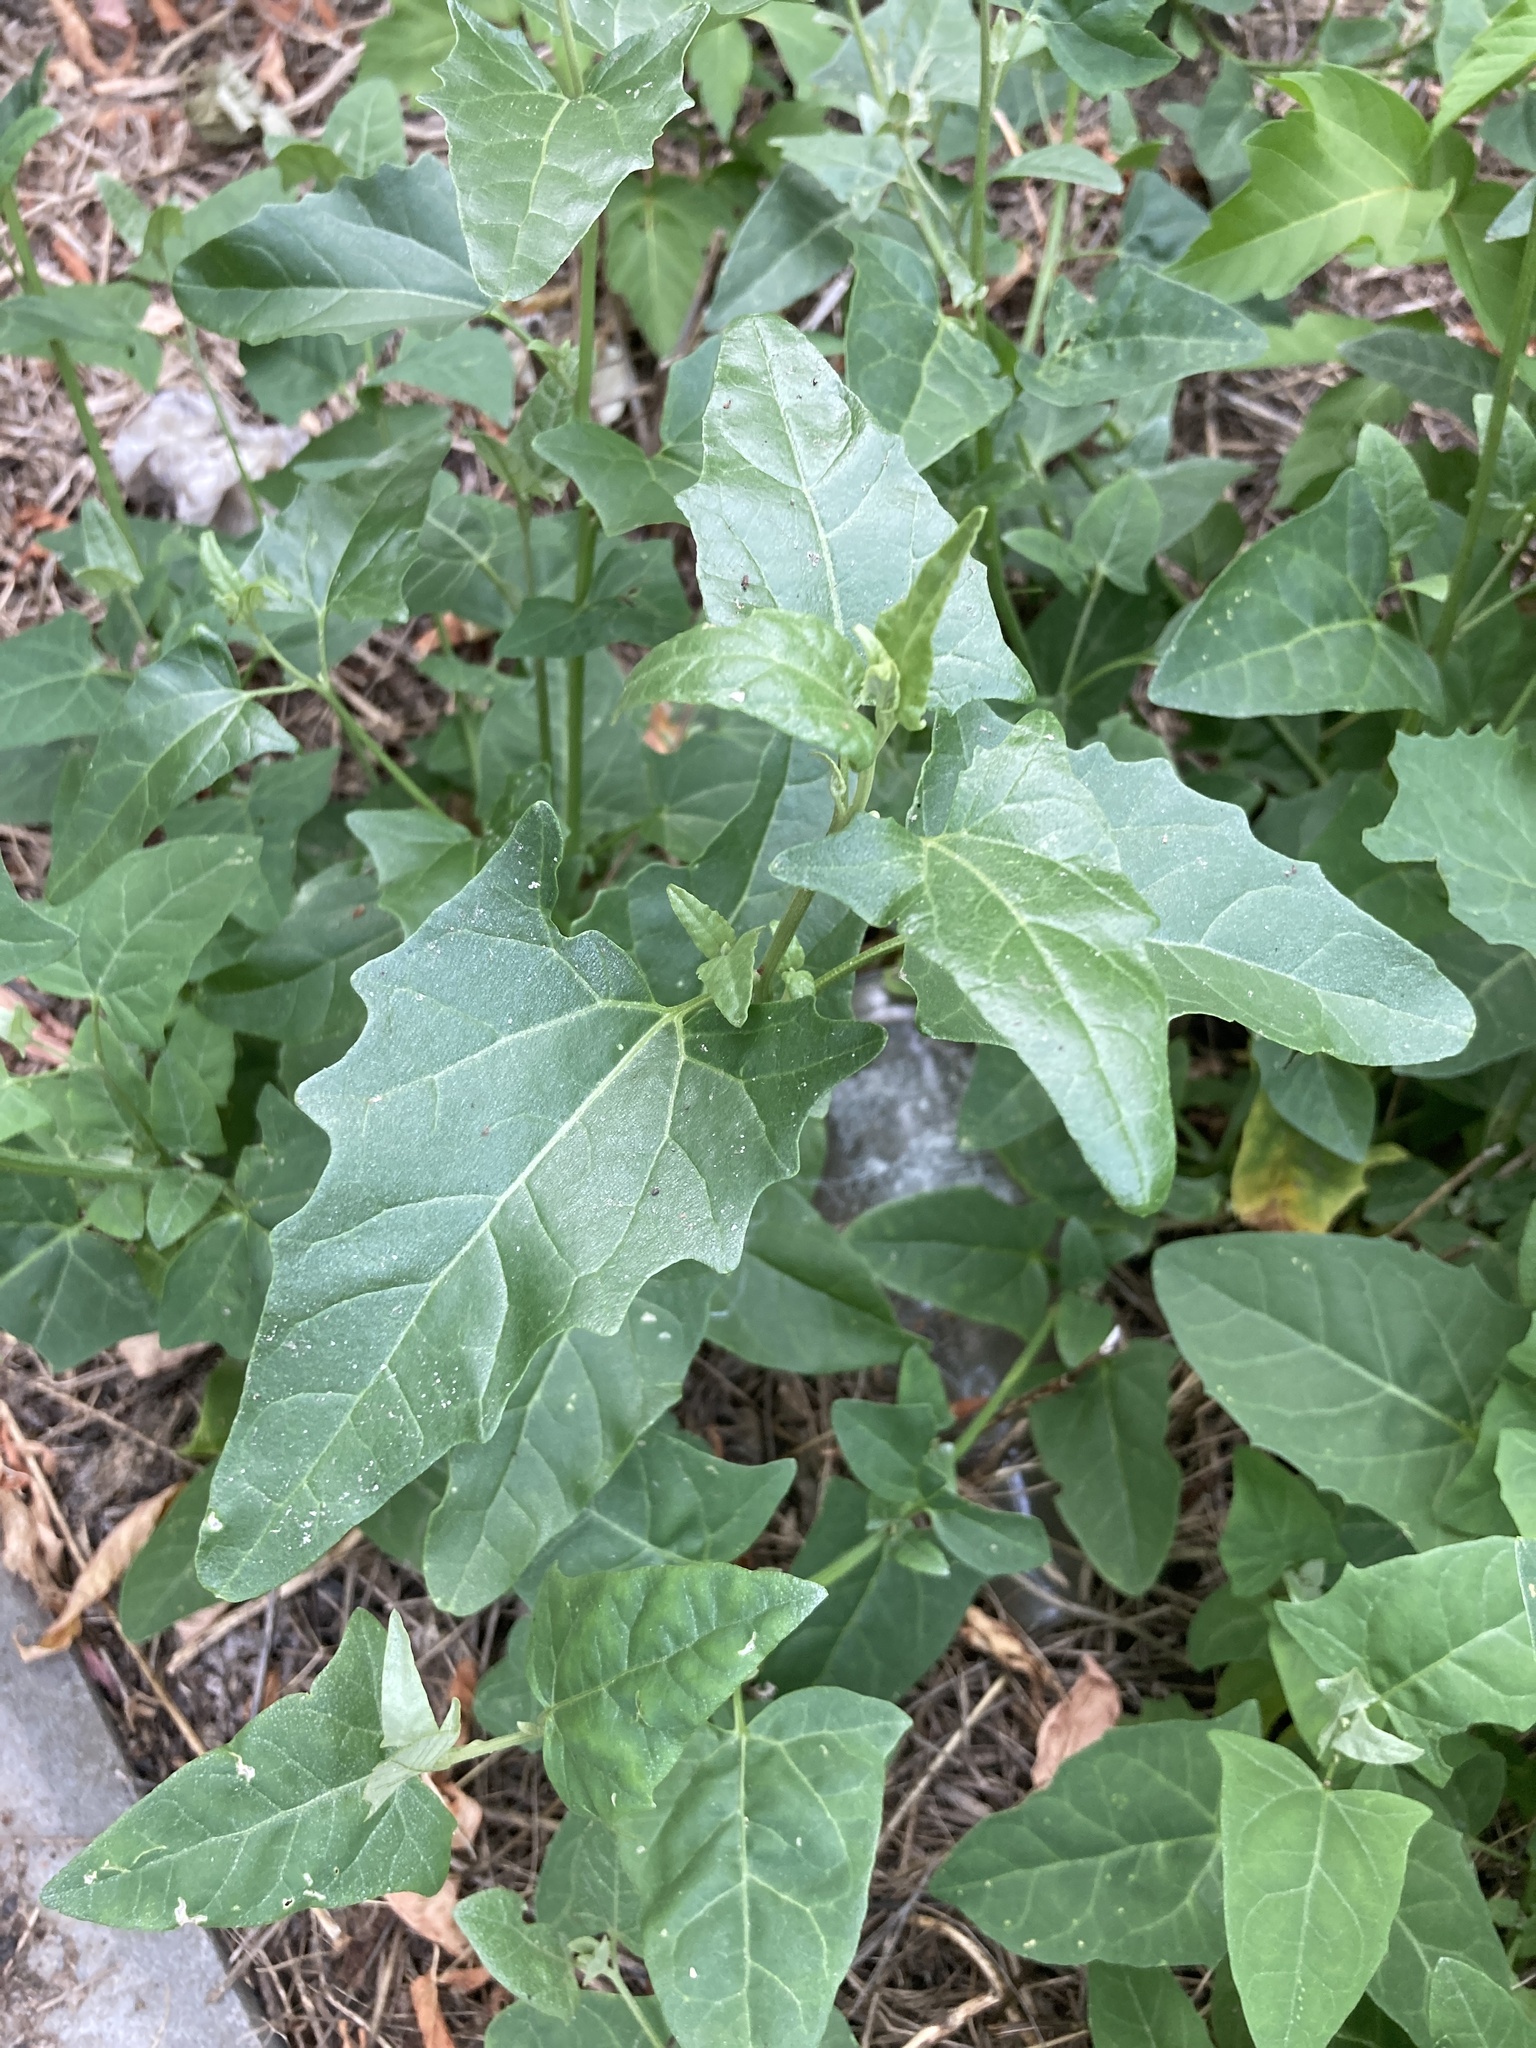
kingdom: Plantae
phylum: Tracheophyta
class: Magnoliopsida
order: Caryophyllales
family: Amaranthaceae
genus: Atriplex
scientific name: Atriplex sagittata
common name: Purple orache
